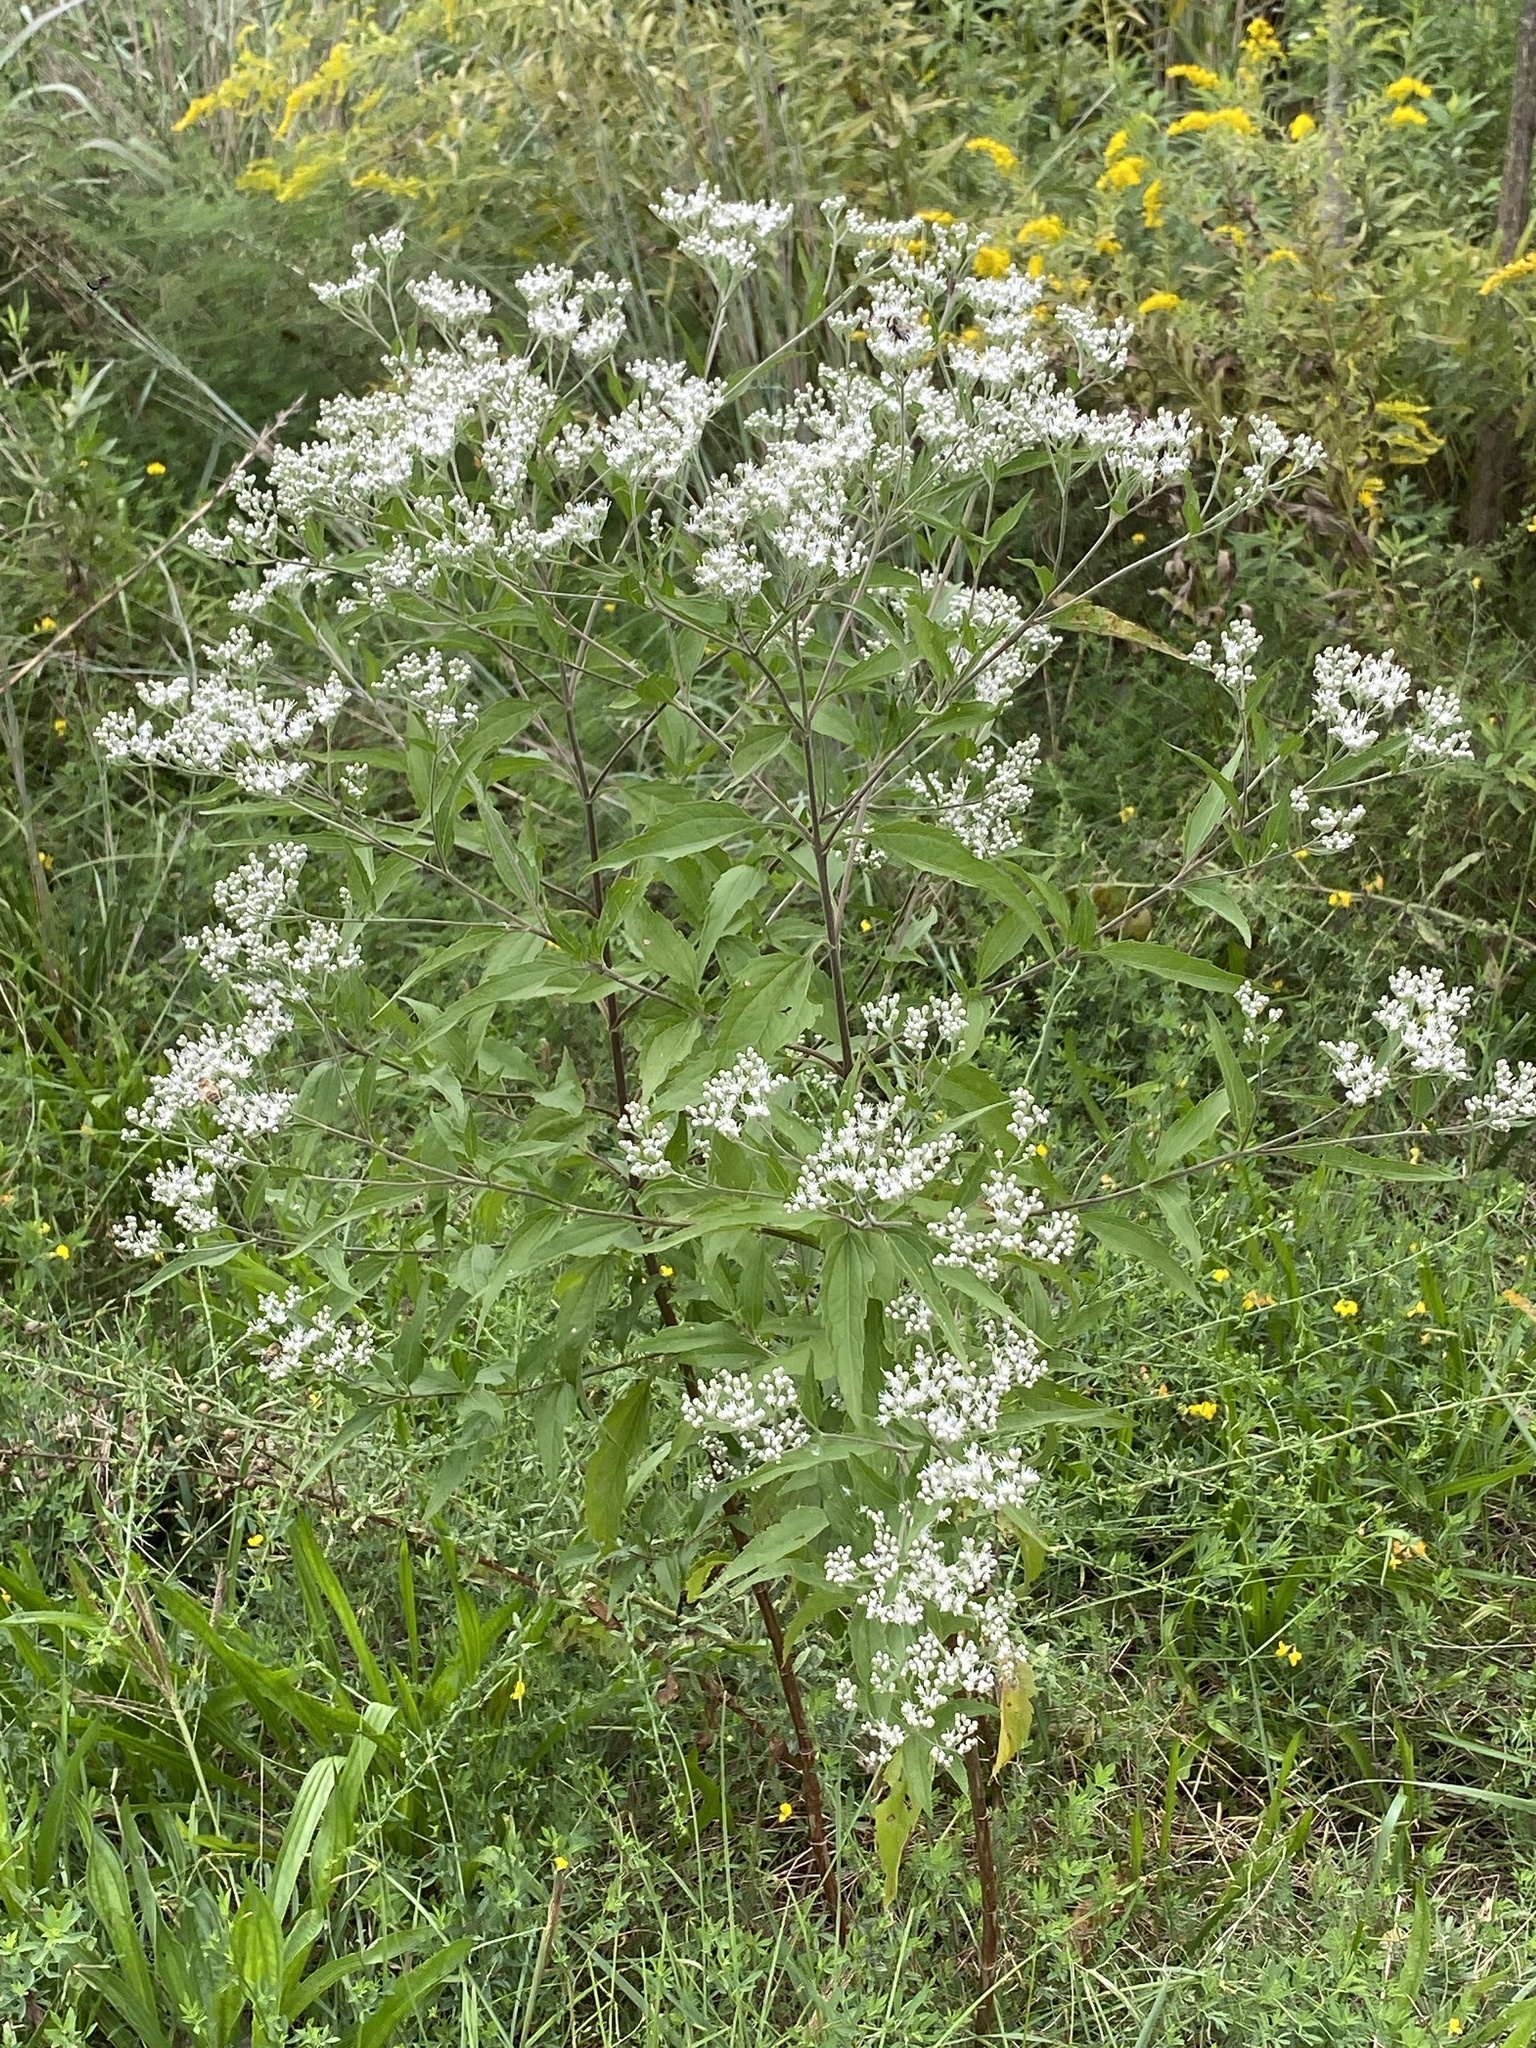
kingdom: Plantae
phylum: Tracheophyta
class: Magnoliopsida
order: Asterales
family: Asteraceae
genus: Eupatorium
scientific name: Eupatorium serotinum
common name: Late boneset
